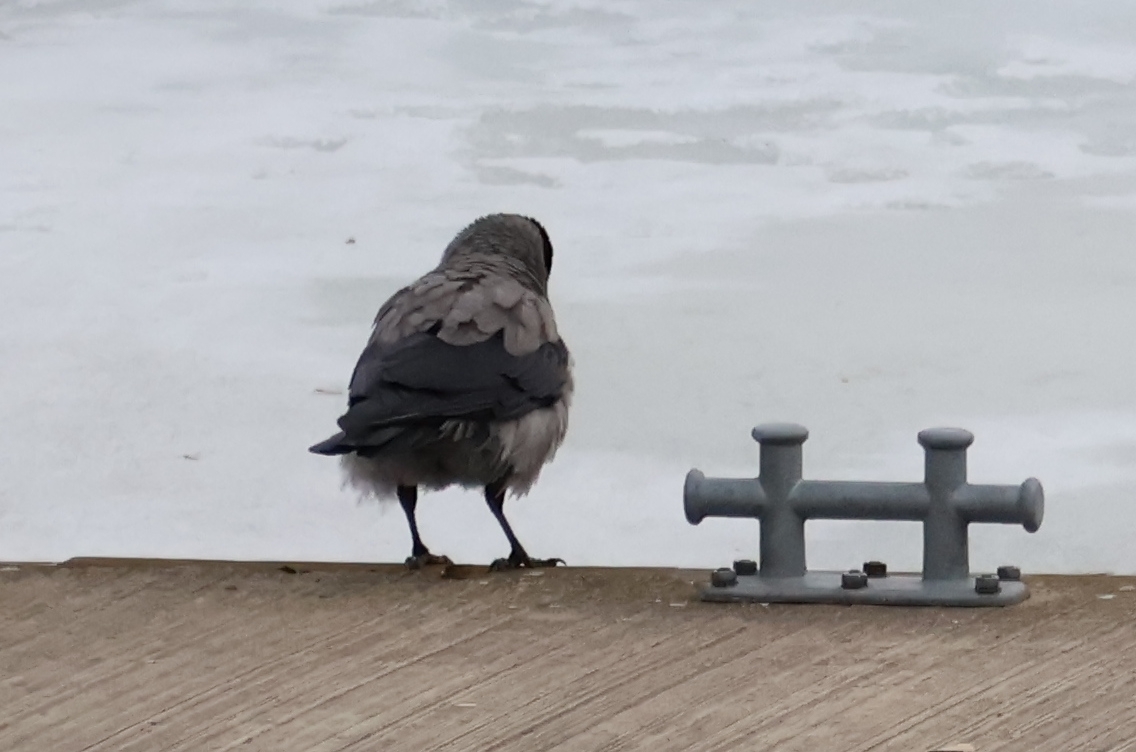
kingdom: Animalia
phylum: Chordata
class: Aves
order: Passeriformes
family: Corvidae
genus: Corvus
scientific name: Corvus cornix
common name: Hooded crow
